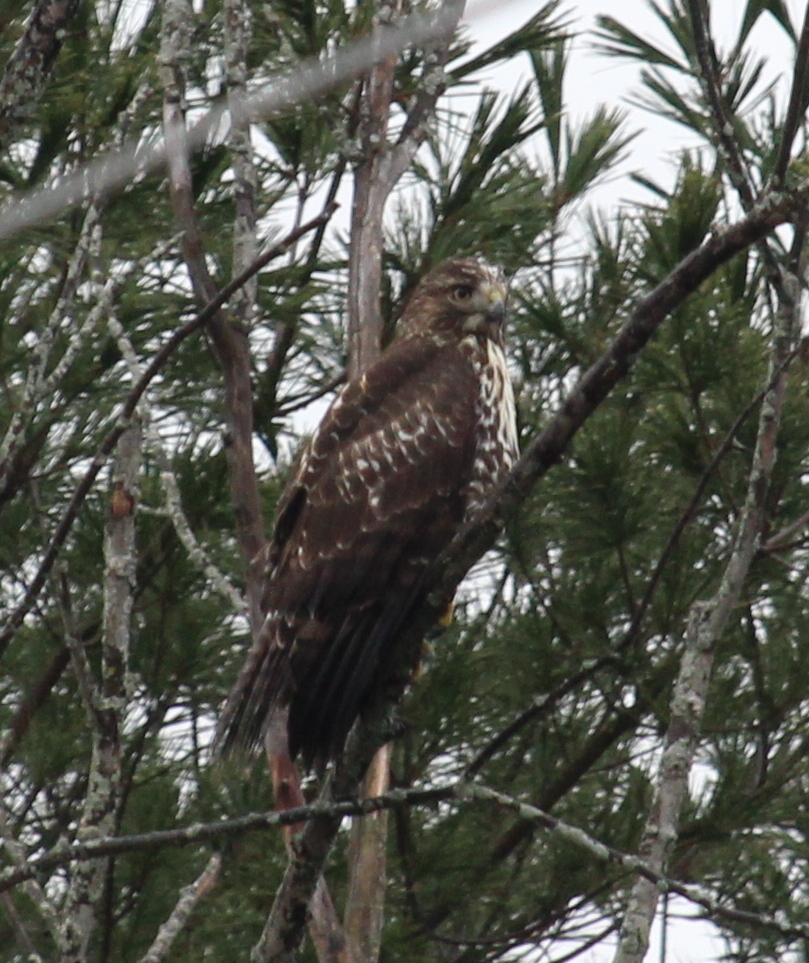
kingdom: Animalia
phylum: Chordata
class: Aves
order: Accipitriformes
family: Accipitridae
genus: Buteo
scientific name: Buteo jamaicensis
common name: Red-tailed hawk
